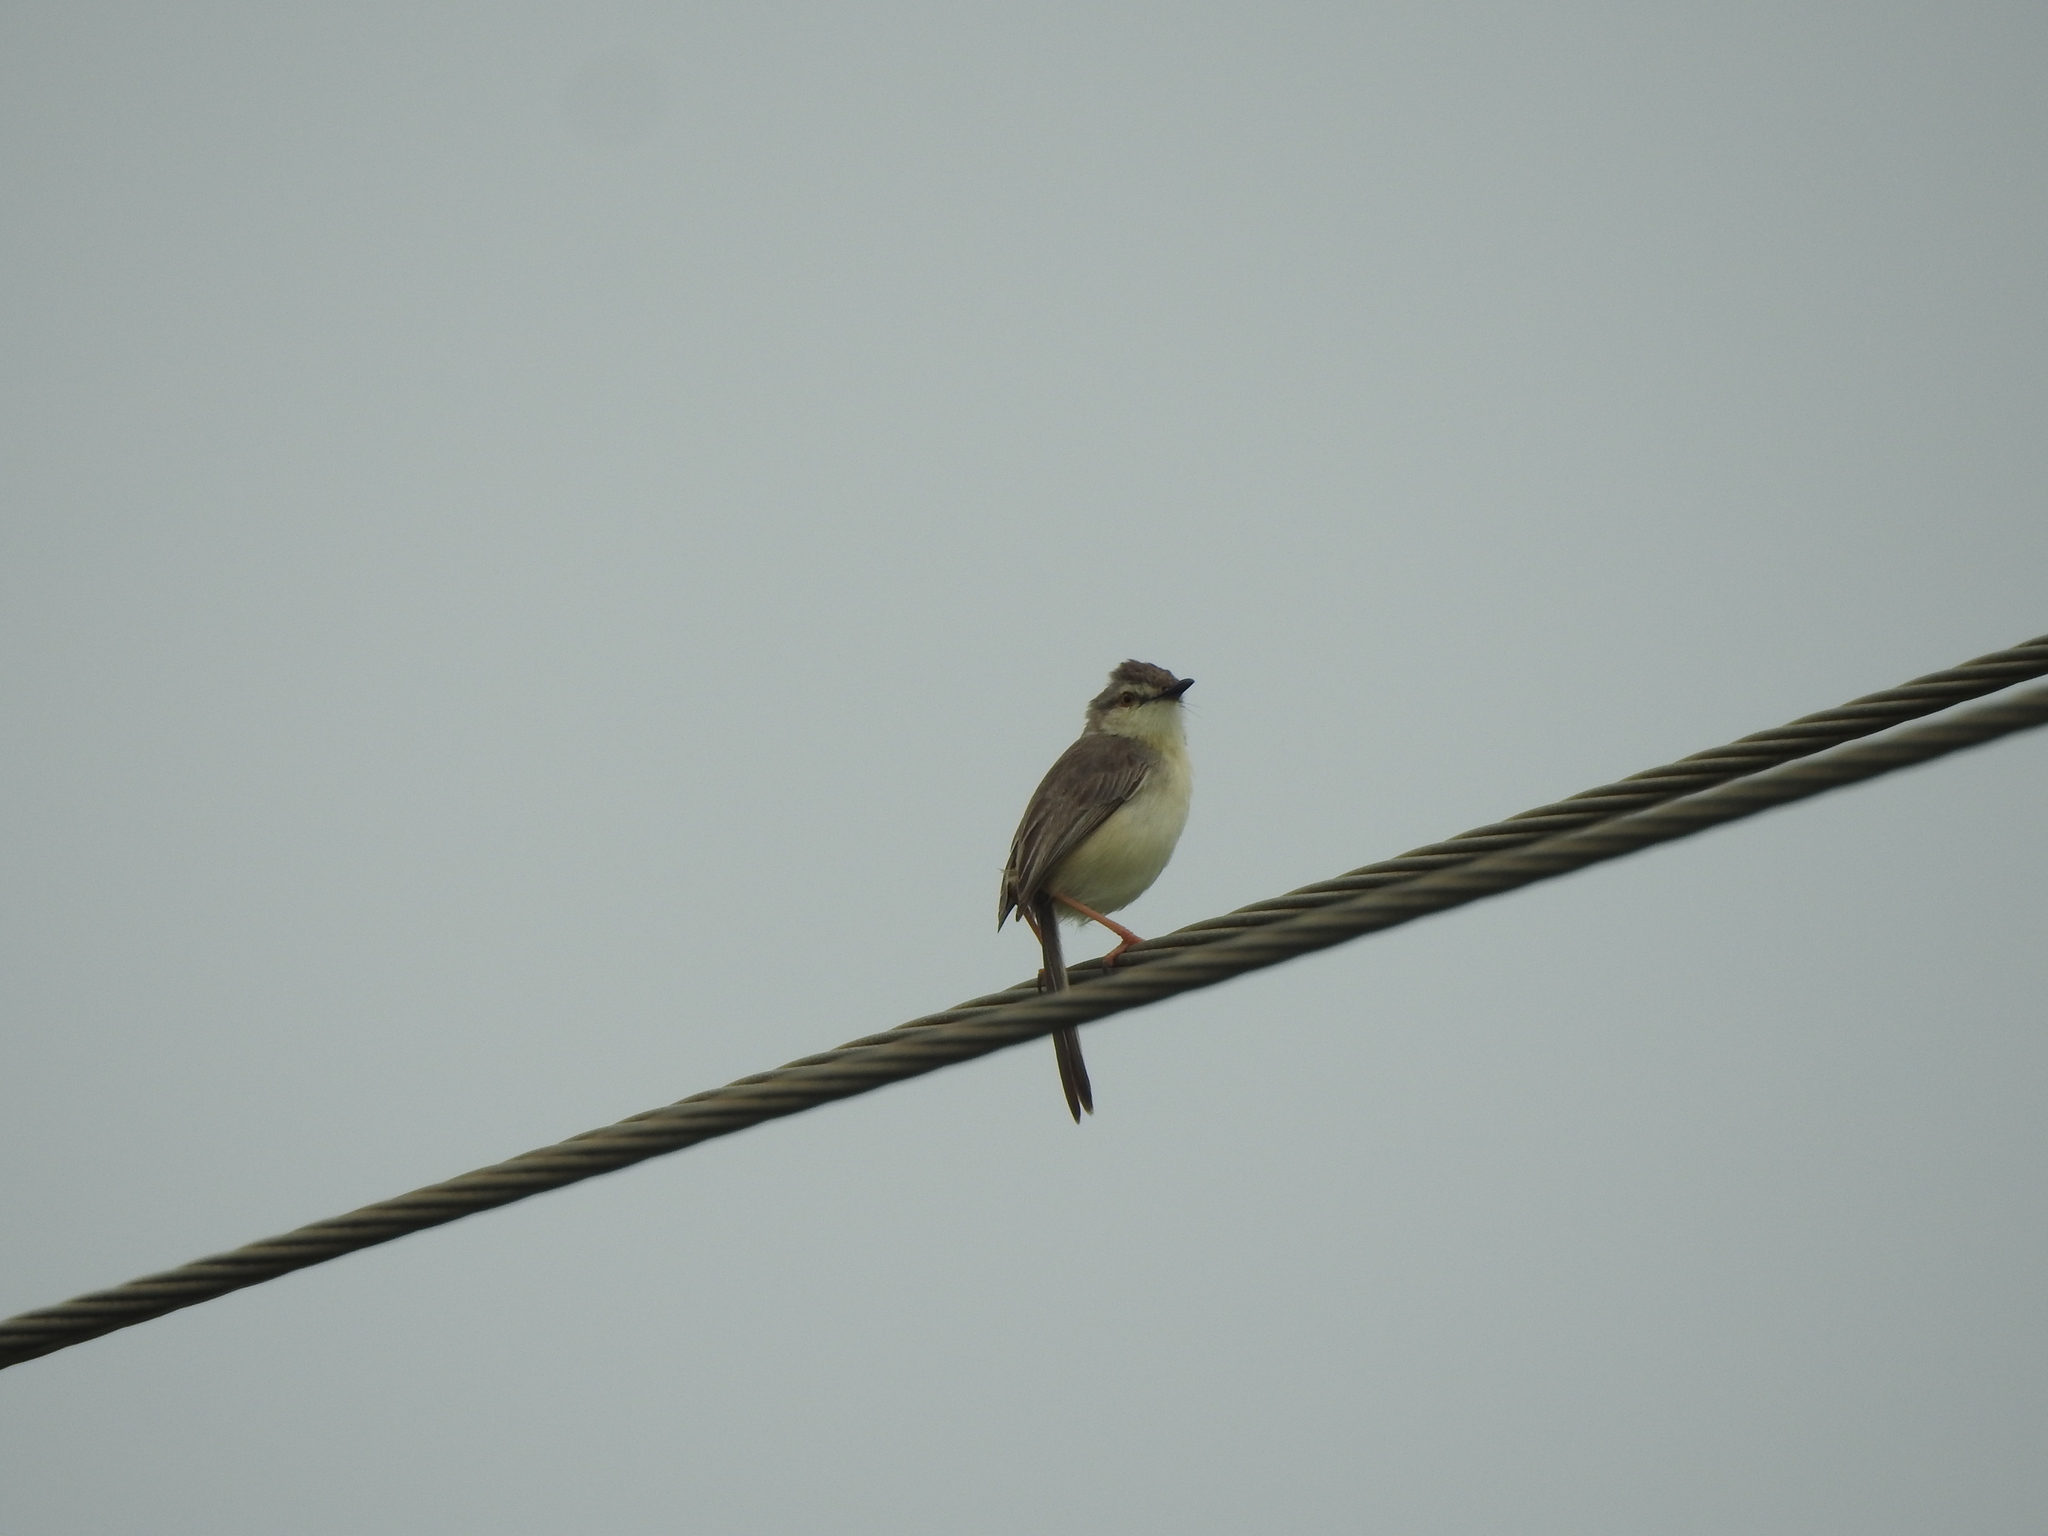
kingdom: Animalia
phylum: Chordata
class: Aves
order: Passeriformes
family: Cisticolidae
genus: Prinia
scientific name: Prinia inornata
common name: Plain prinia
